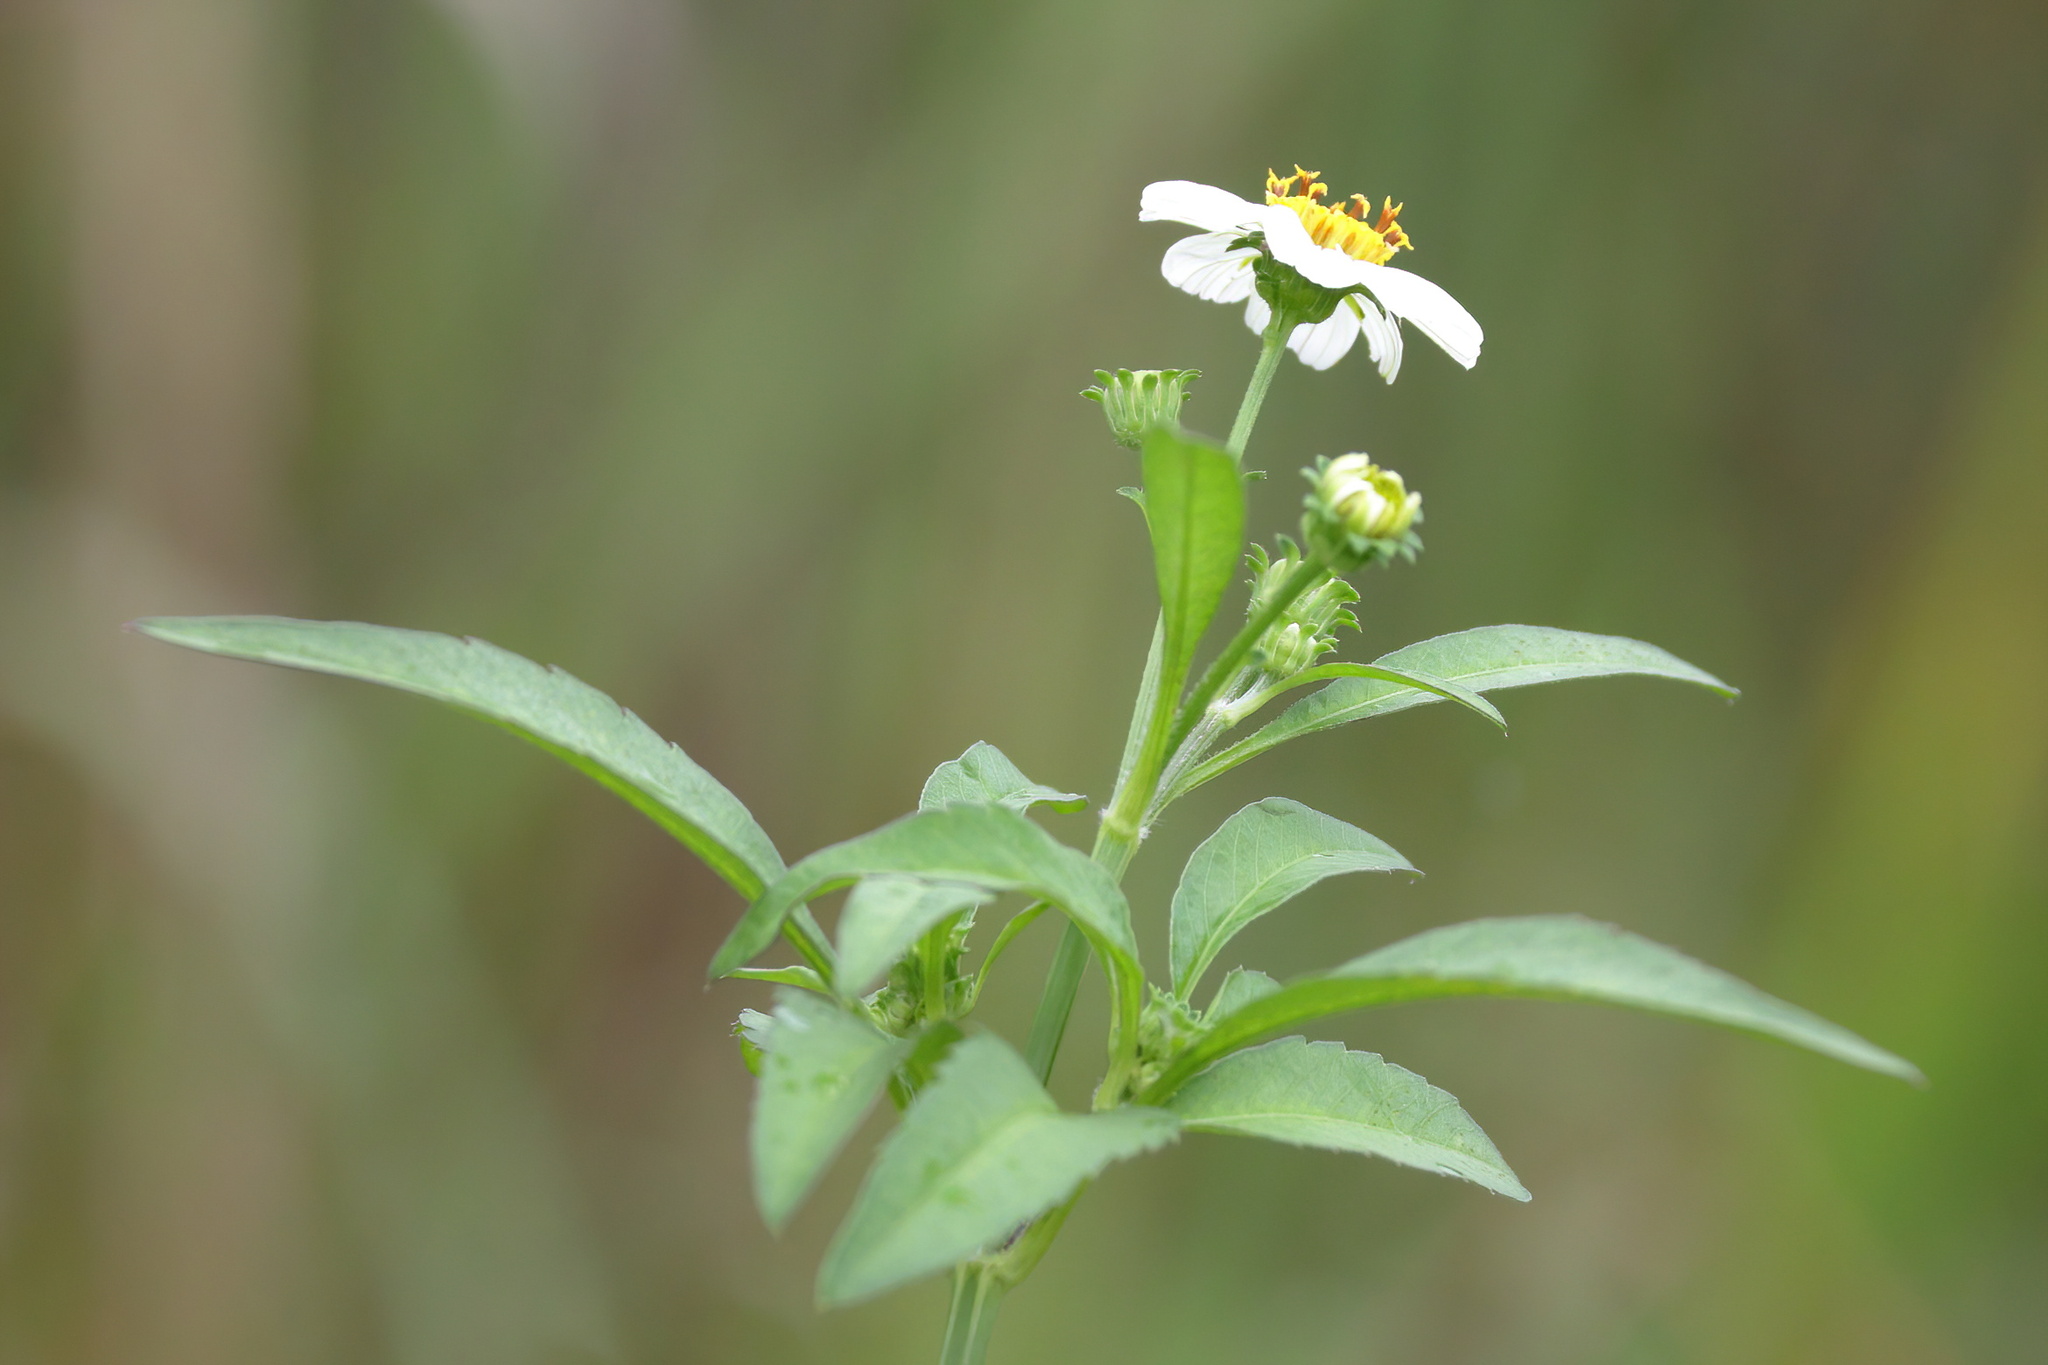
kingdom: Plantae
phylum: Tracheophyta
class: Magnoliopsida
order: Asterales
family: Asteraceae
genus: Bidens
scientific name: Bidens alba
